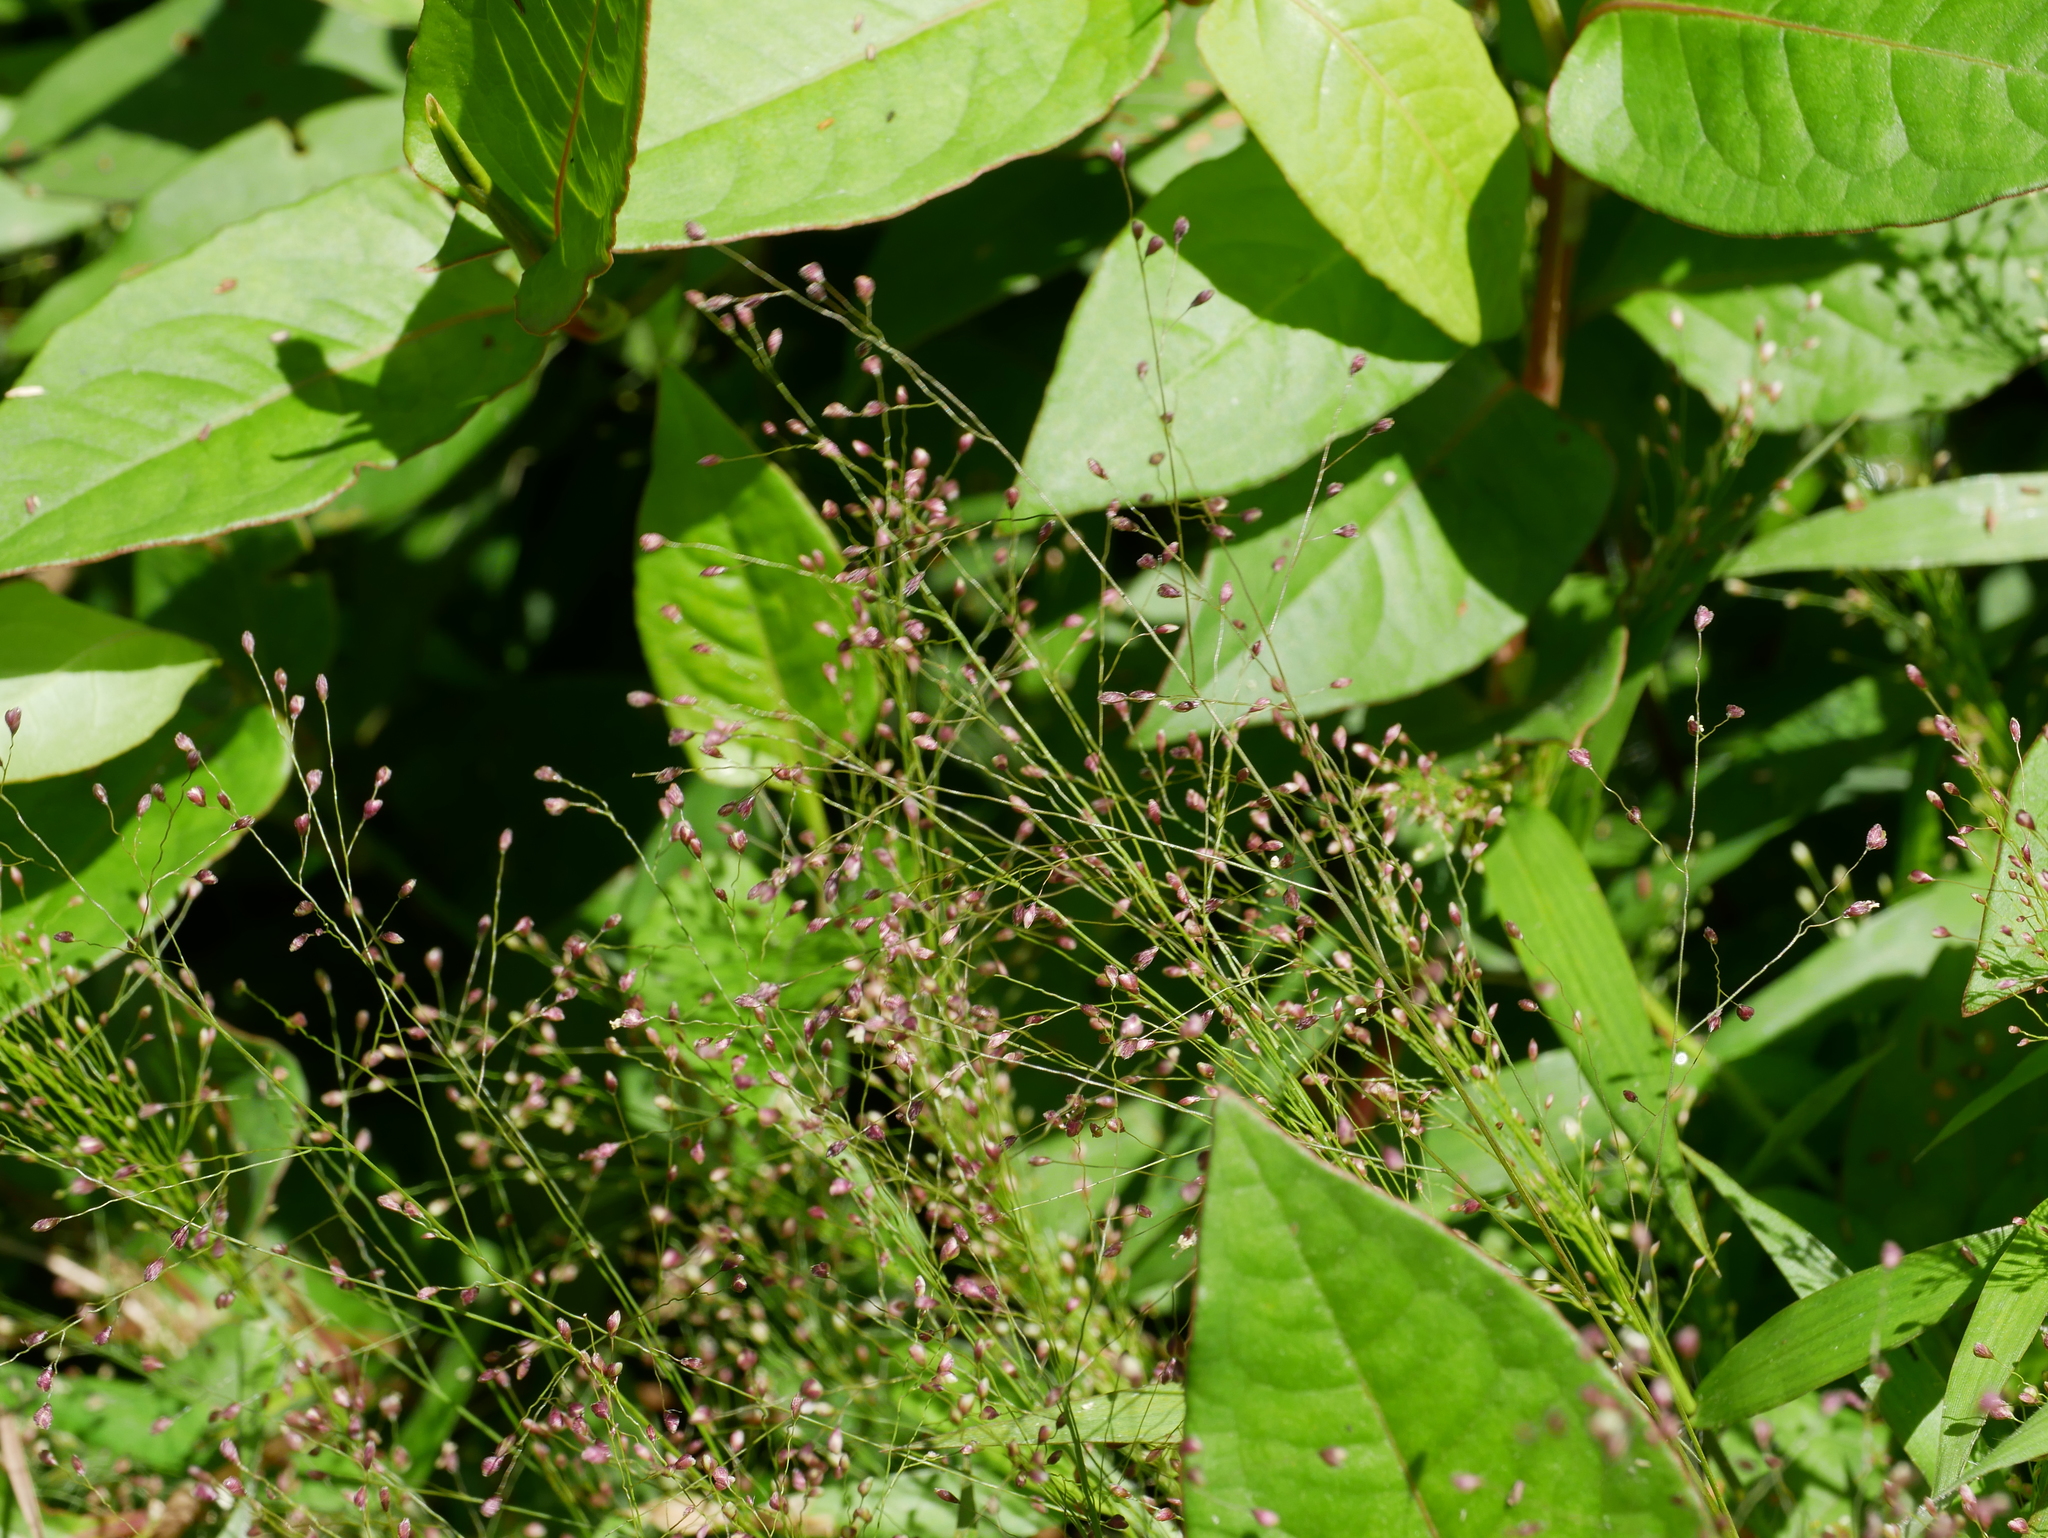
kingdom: Plantae
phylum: Tracheophyta
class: Liliopsida
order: Poales
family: Poaceae
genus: Cyrtococcum
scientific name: Cyrtococcum accrescens
